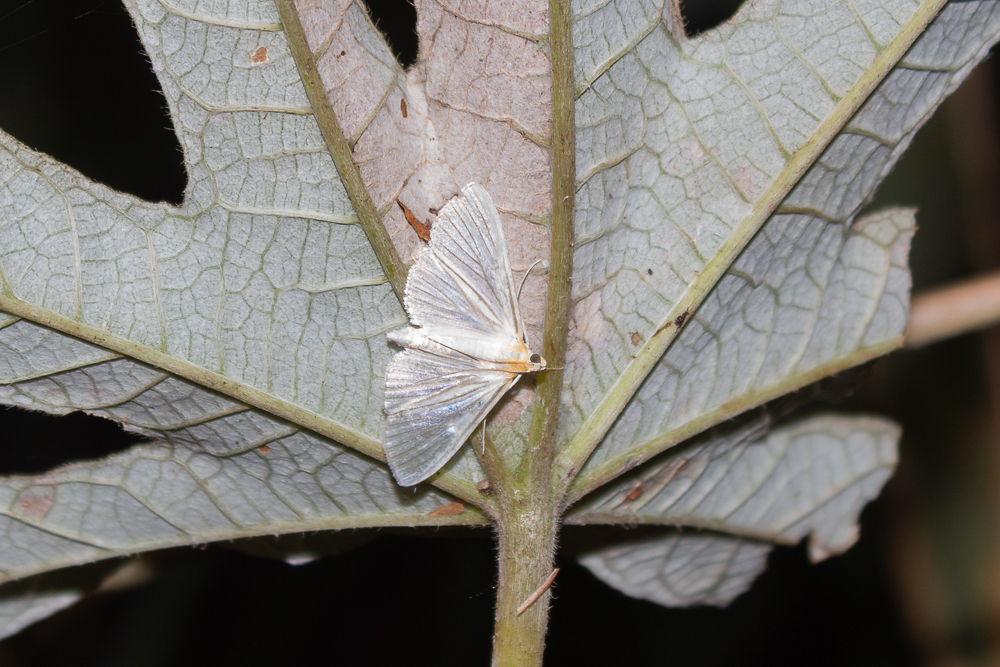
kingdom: Animalia
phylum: Arthropoda
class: Insecta
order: Lepidoptera
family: Crambidae
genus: Syllepte
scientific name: Syllepte striginervalis
